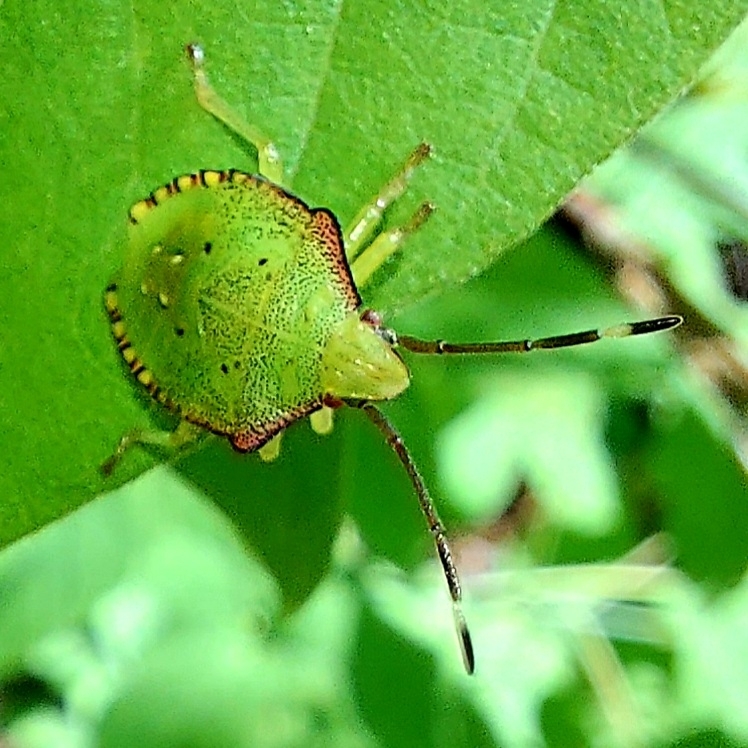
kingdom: Animalia
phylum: Arthropoda
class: Insecta
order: Hemiptera
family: Acanthosomatidae
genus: Acanthosoma
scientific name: Acanthosoma haemorrhoidale
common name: Hawthorn shieldbug
